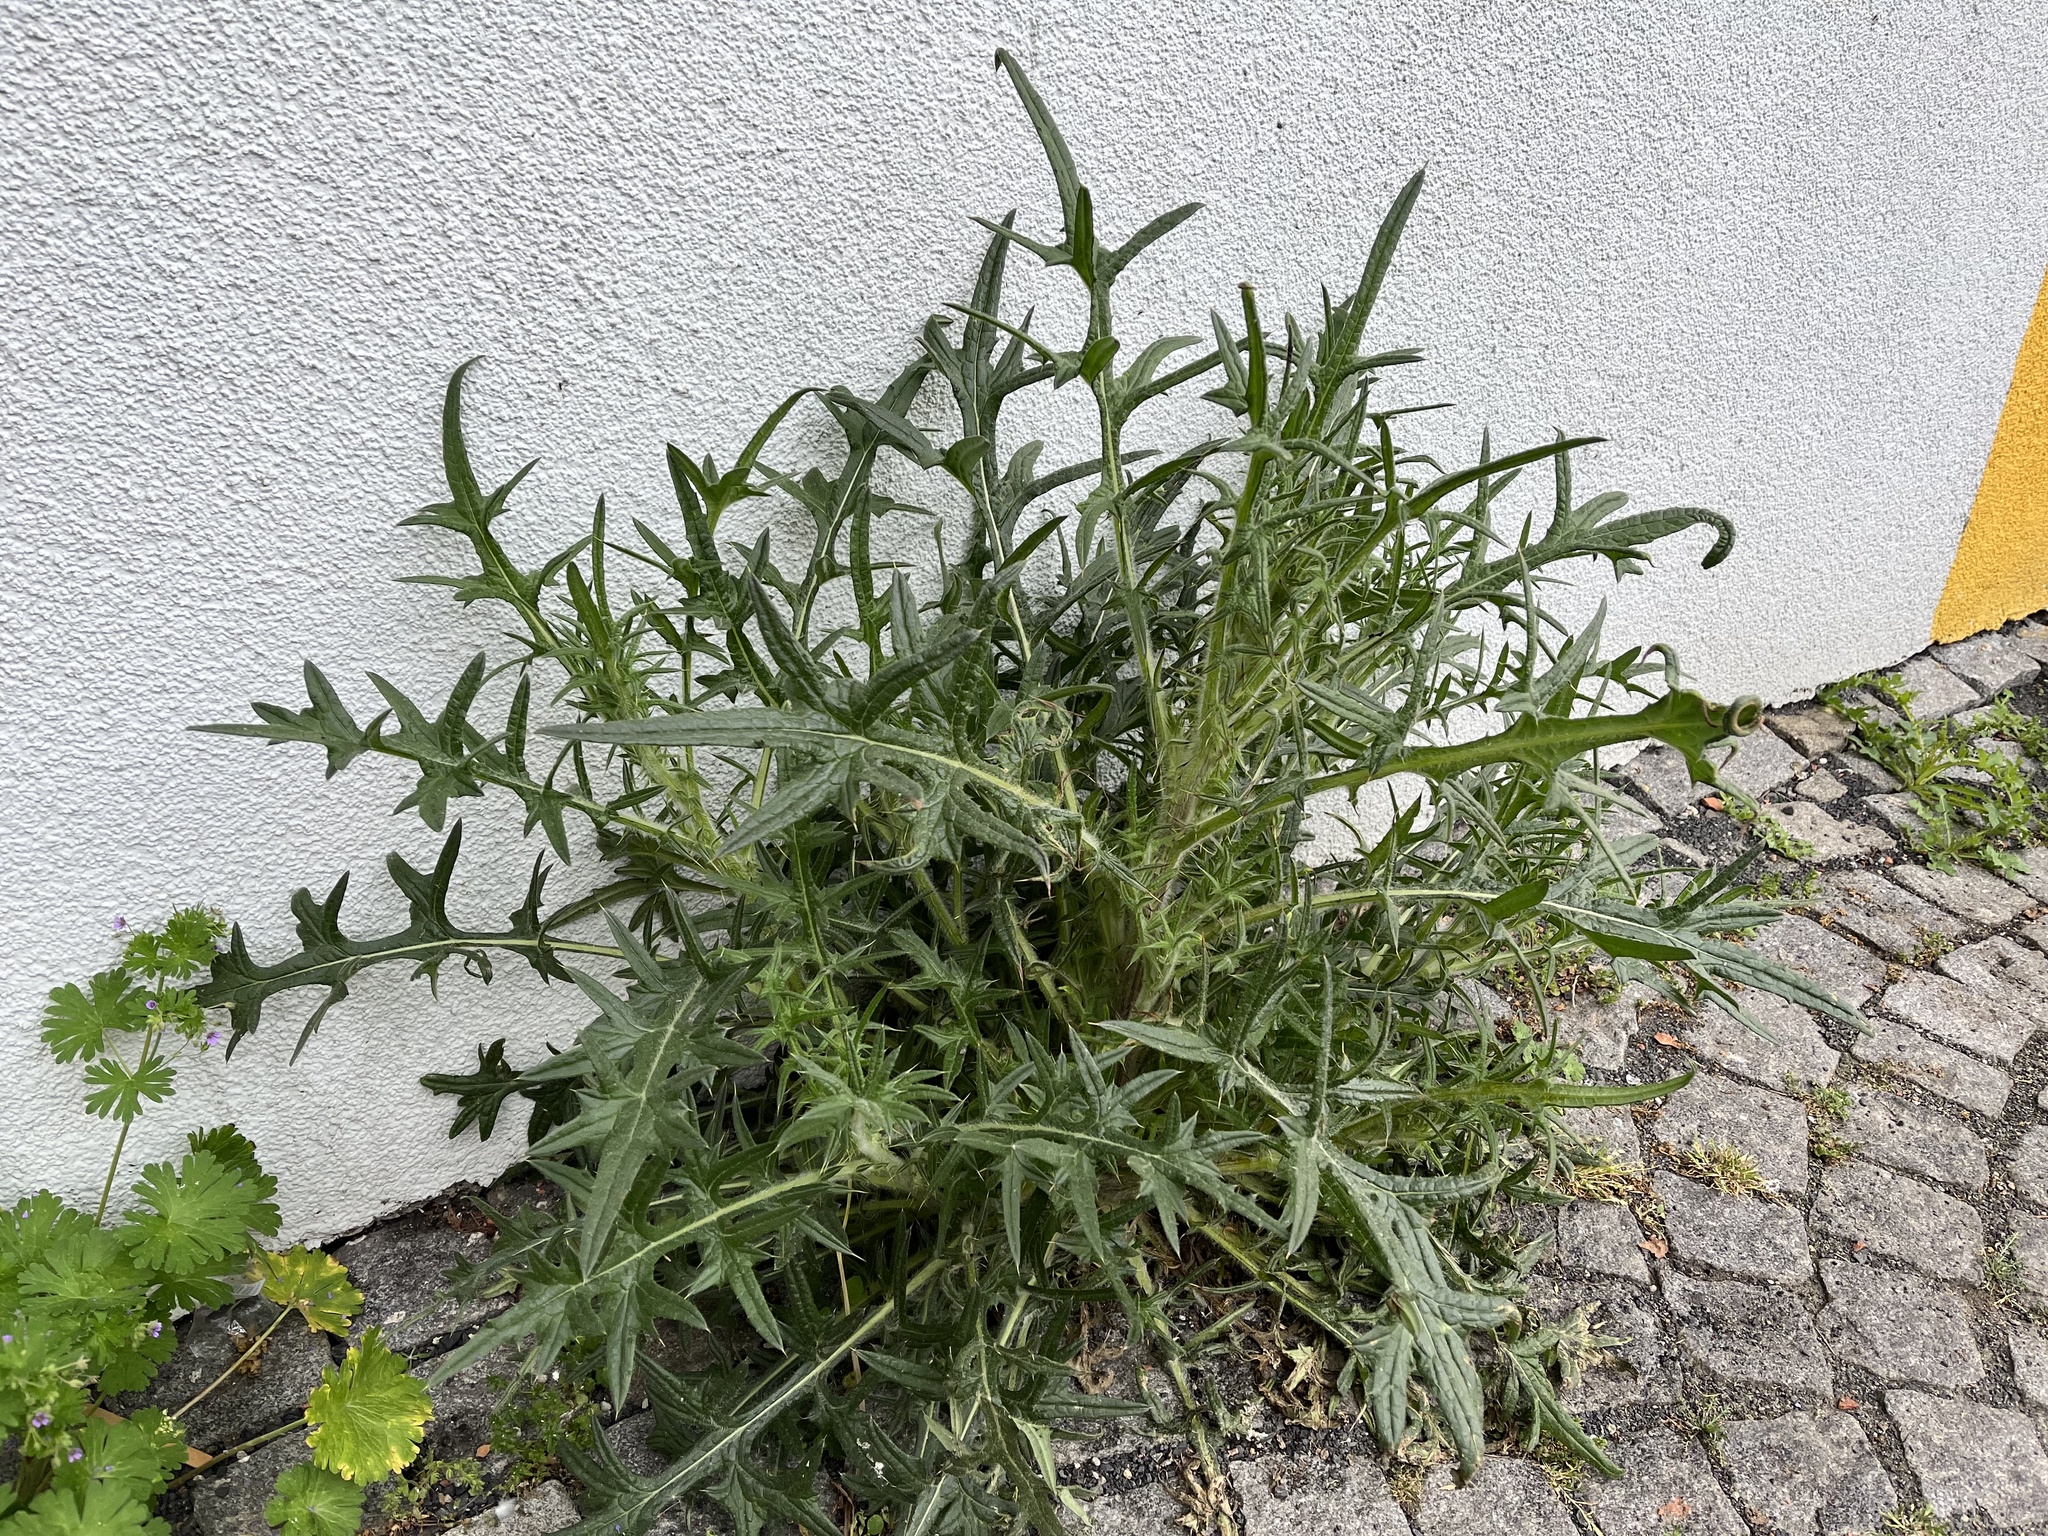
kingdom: Plantae
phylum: Tracheophyta
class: Magnoliopsida
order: Asterales
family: Asteraceae
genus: Cirsium
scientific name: Cirsium vulgare
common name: Bull thistle
